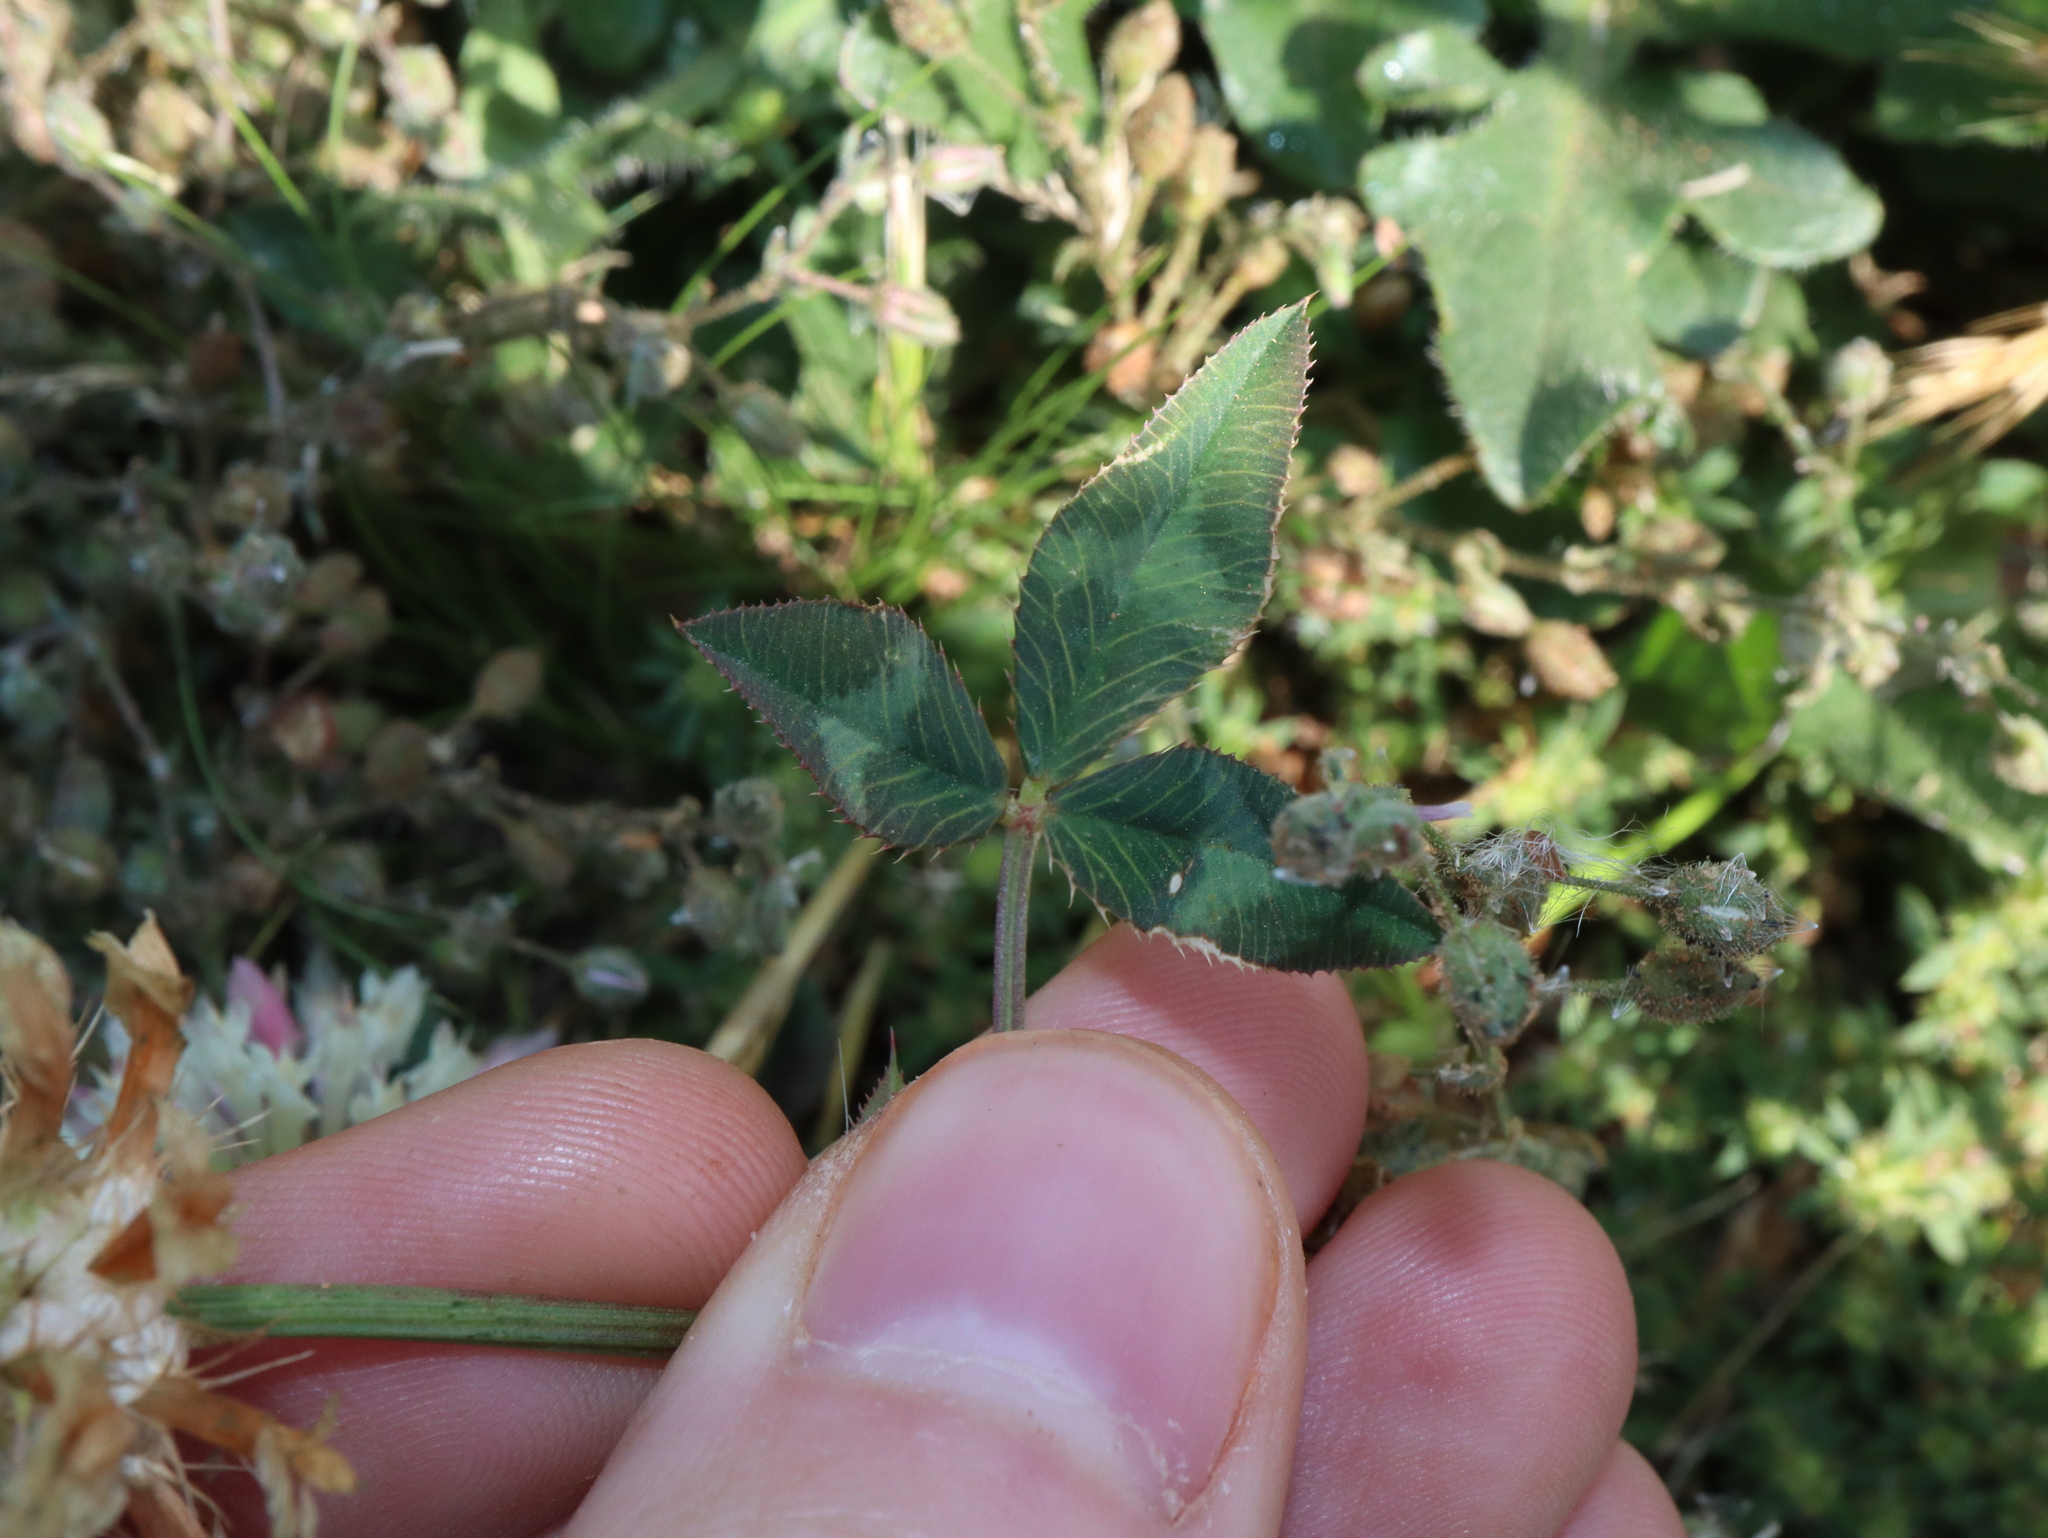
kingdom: Plantae
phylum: Tracheophyta
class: Magnoliopsida
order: Fabales
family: Fabaceae
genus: Trifolium
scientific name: Trifolium vesiculosum
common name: Arrowleaf clover
